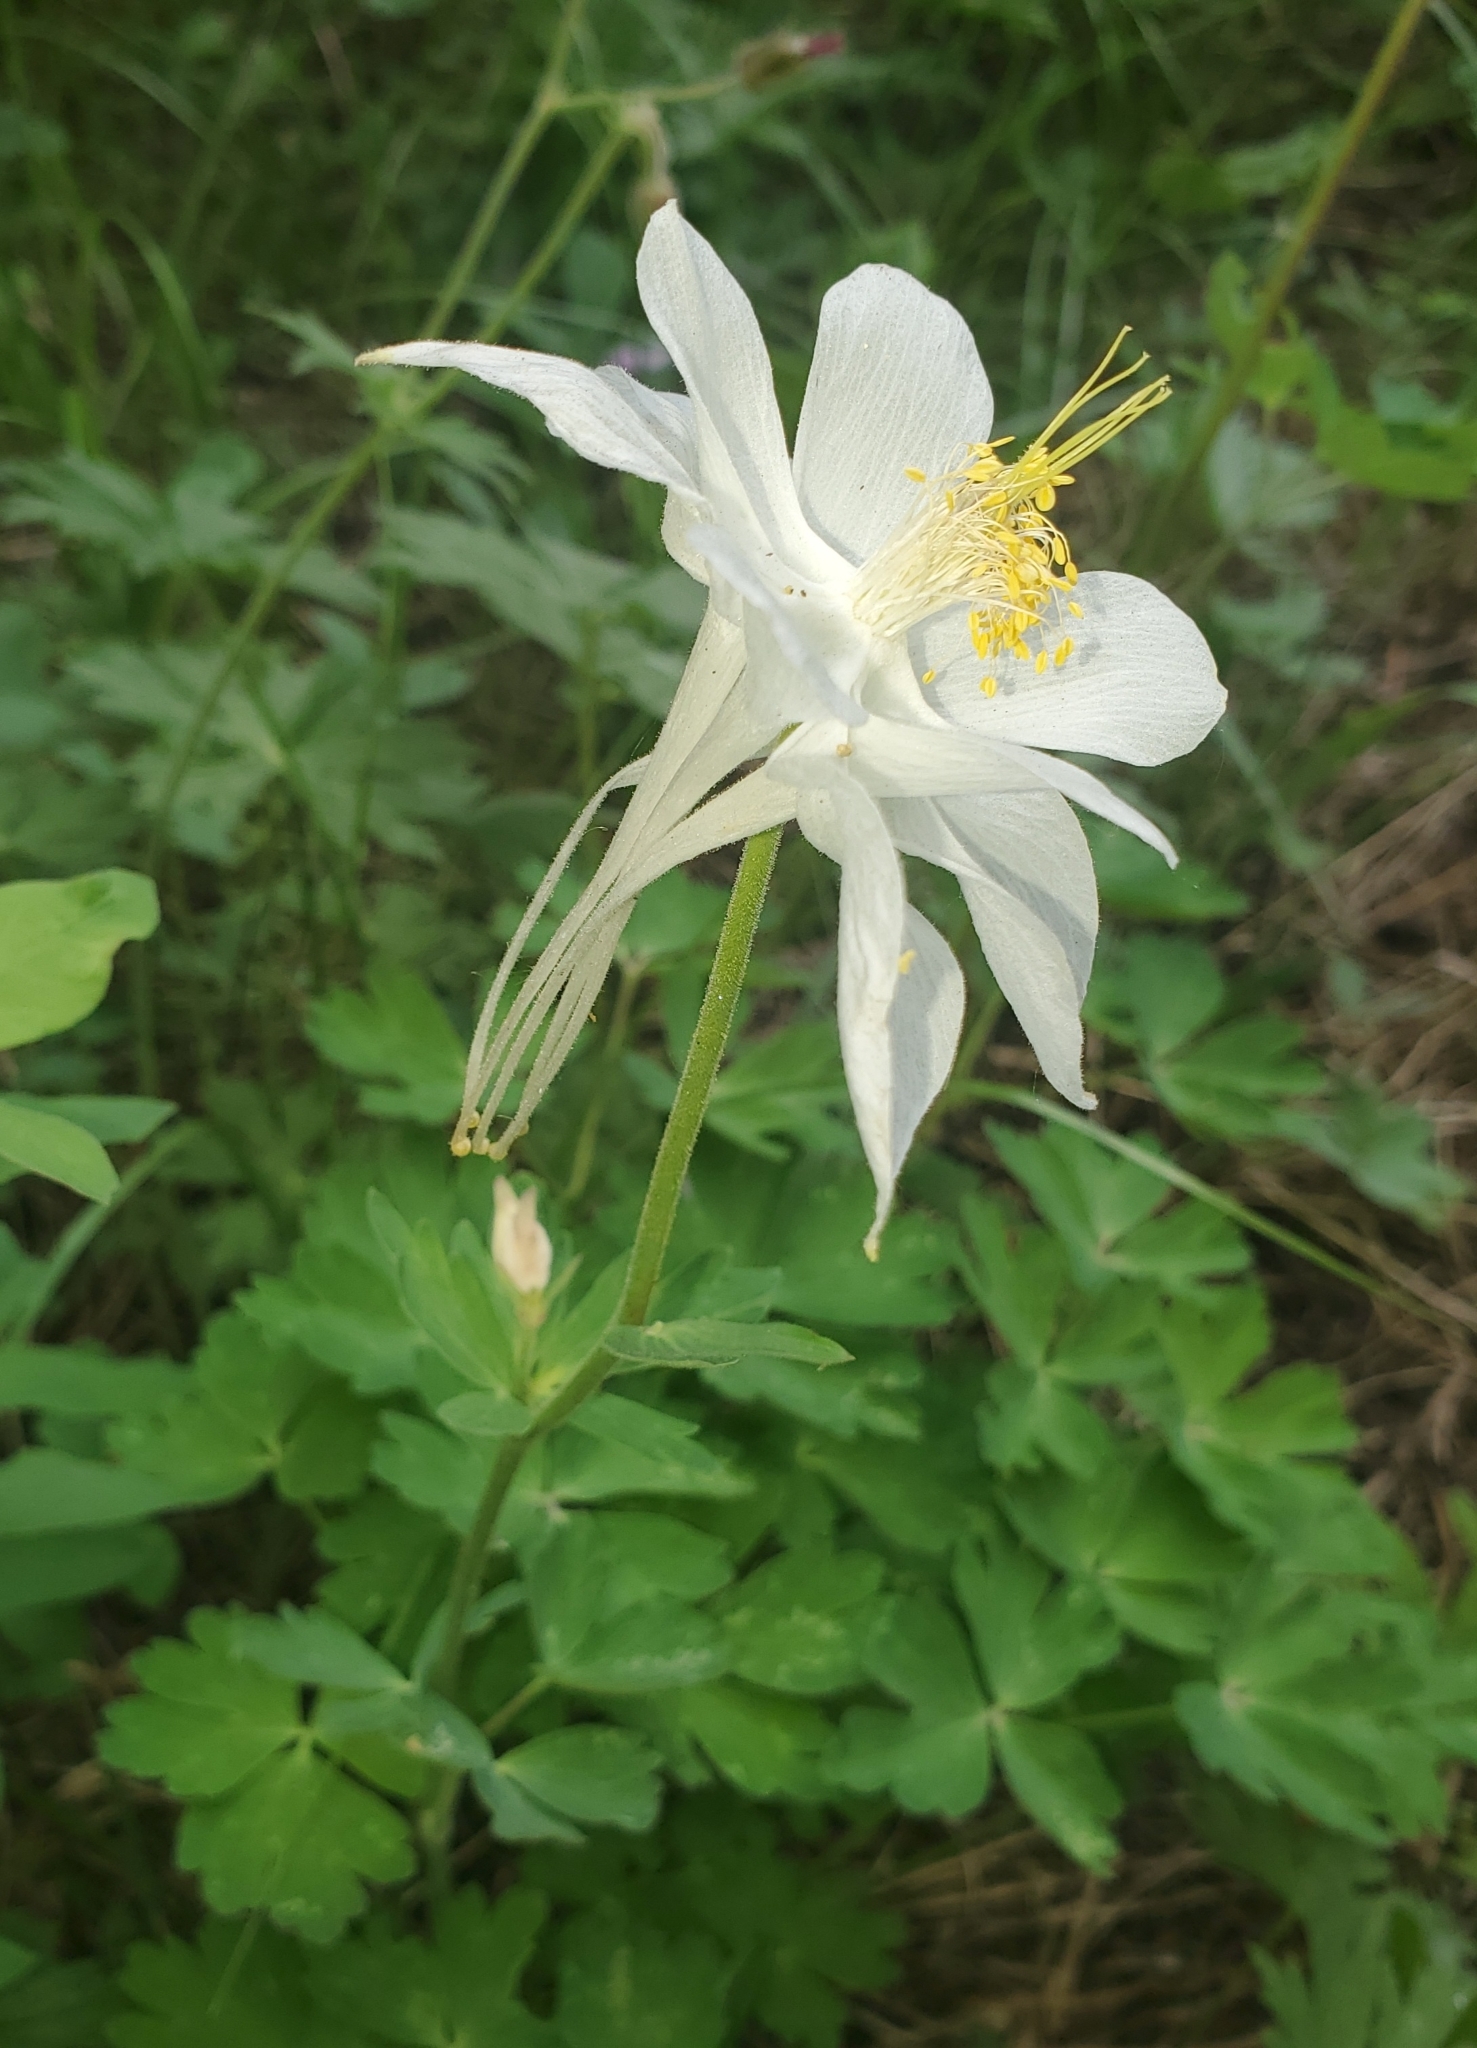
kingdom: Plantae
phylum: Tracheophyta
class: Magnoliopsida
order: Ranunculales
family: Ranunculaceae
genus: Aquilegia
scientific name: Aquilegia coerulea
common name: Rocky mountain columbine
